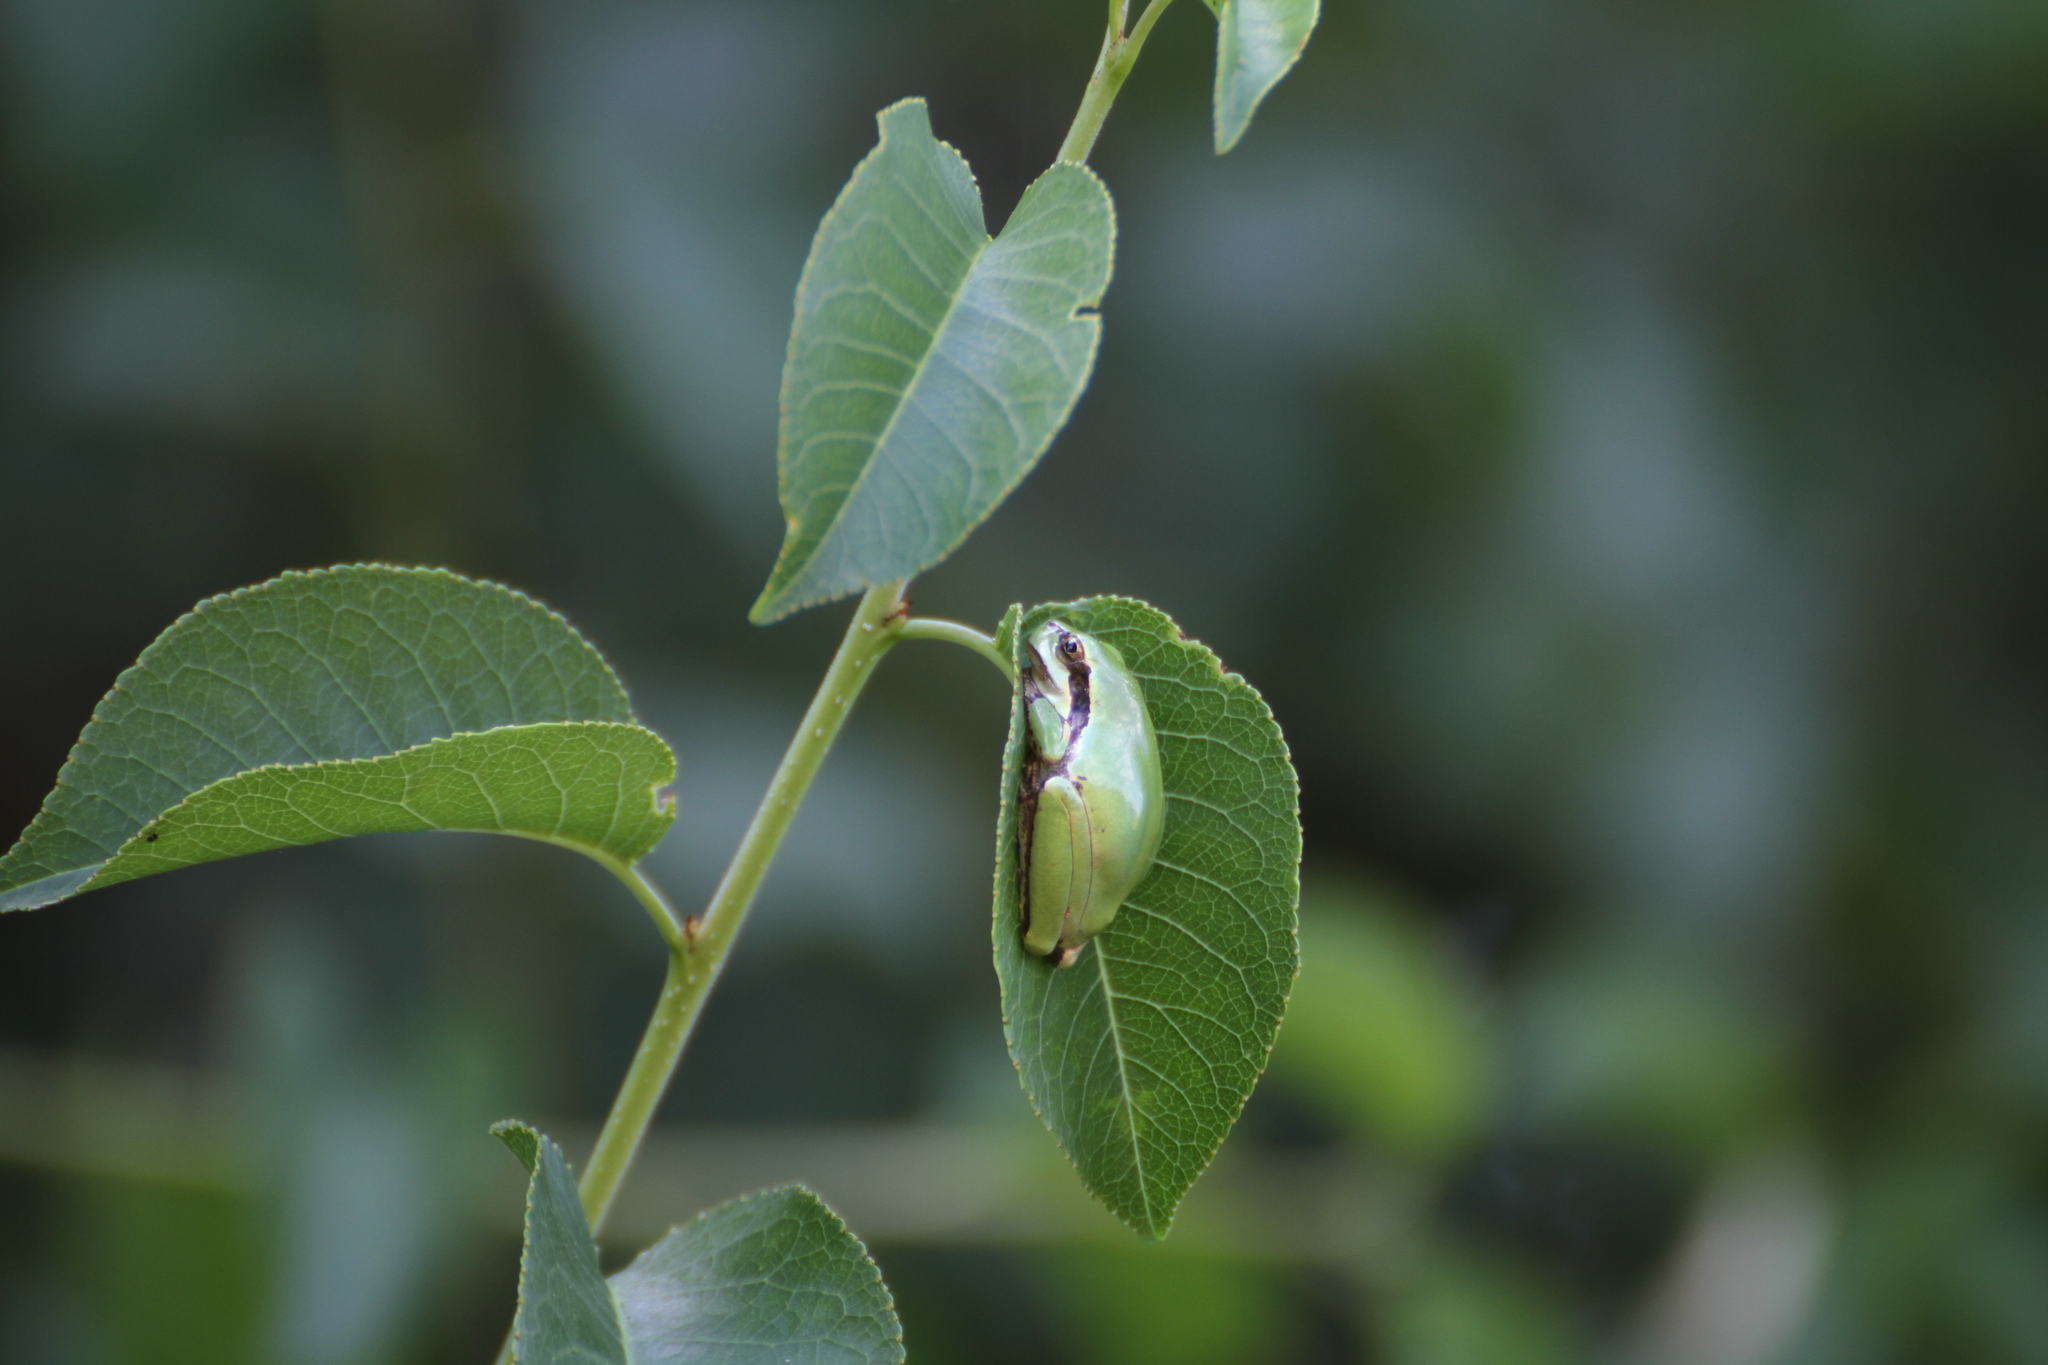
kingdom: Animalia
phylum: Chordata
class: Amphibia
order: Anura
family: Hylidae
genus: Hyla
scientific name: Hyla meridionalis
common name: Stripeless tree frog
